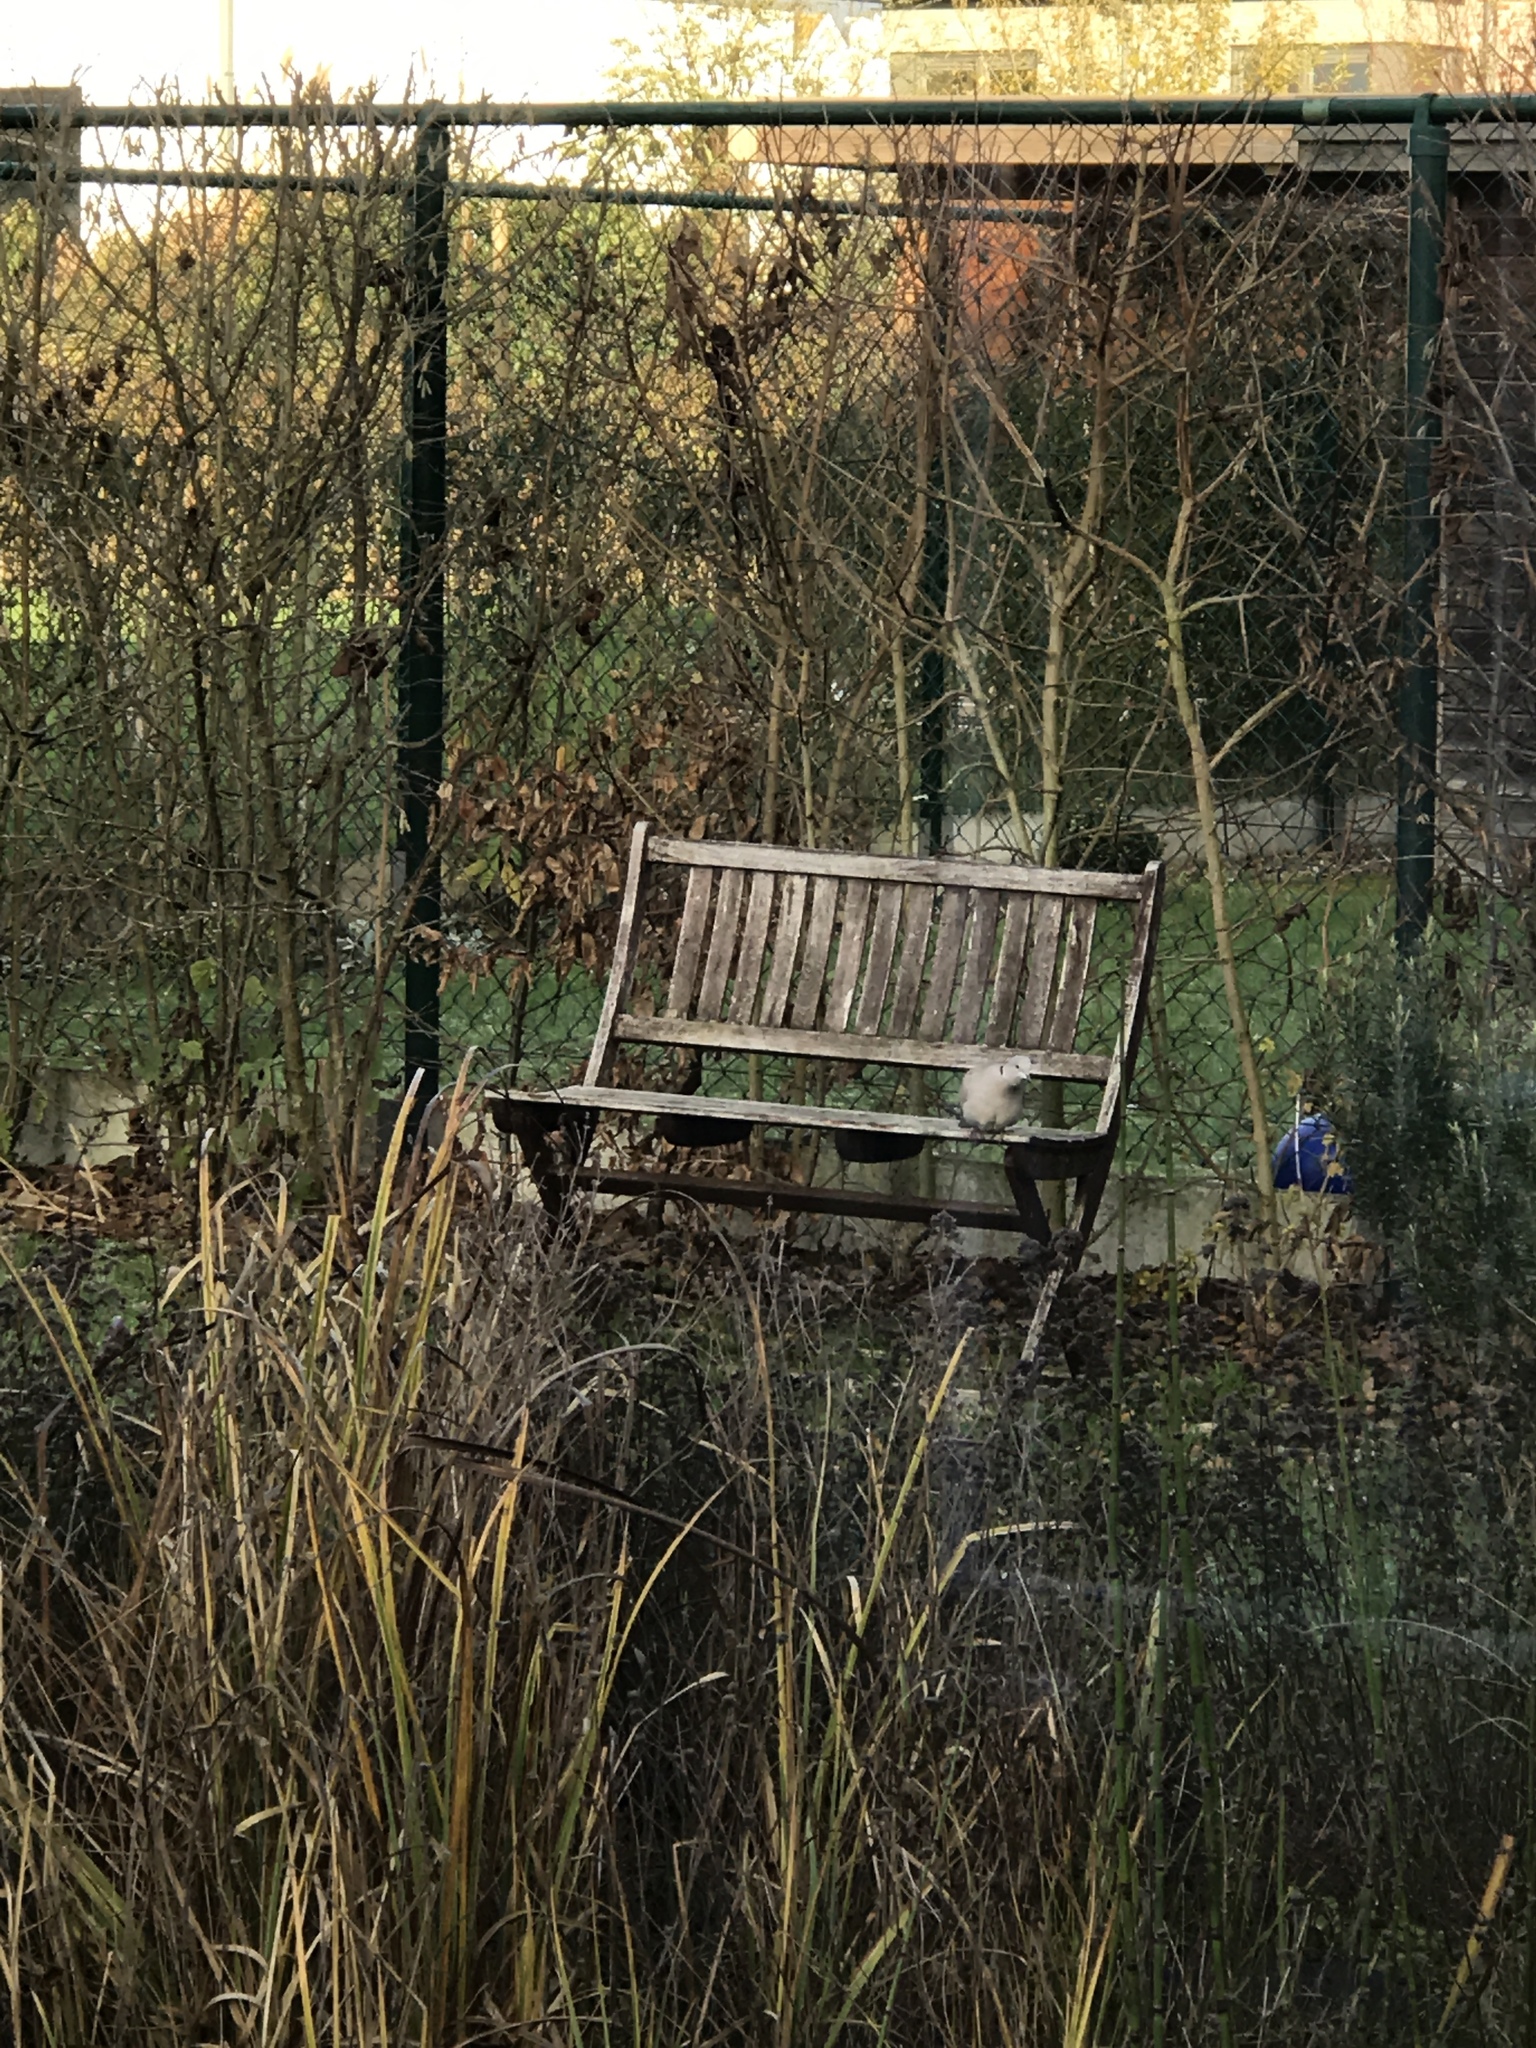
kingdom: Animalia
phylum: Chordata
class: Aves
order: Columbiformes
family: Columbidae
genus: Streptopelia
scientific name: Streptopelia decaocto
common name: Eurasian collared dove
